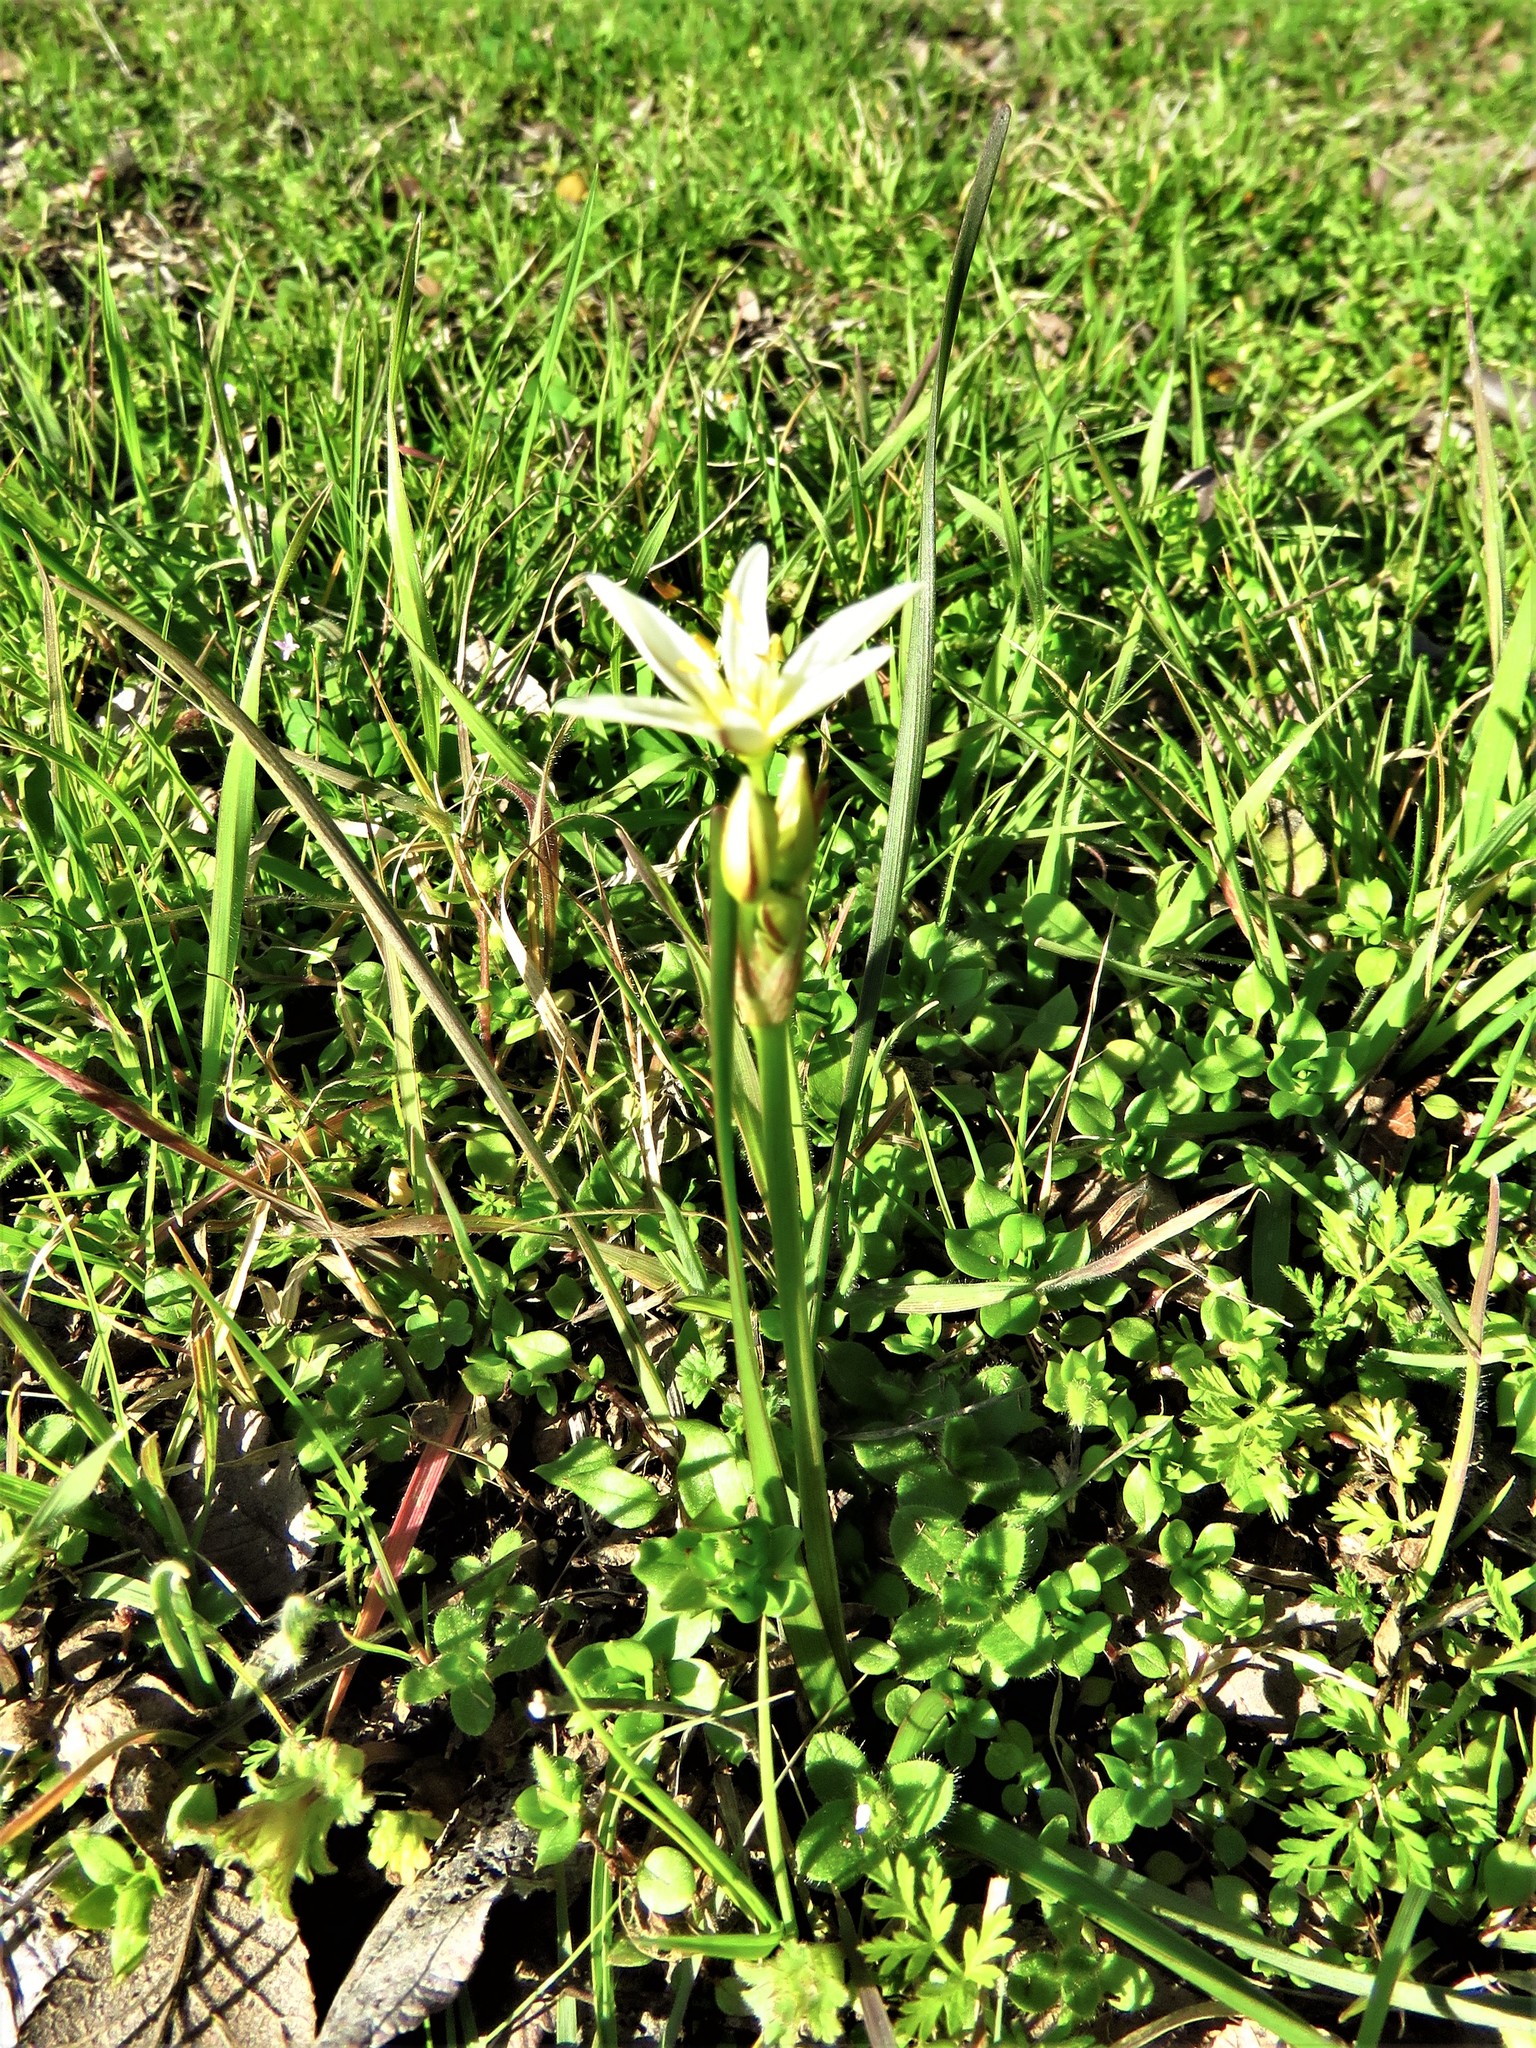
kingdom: Plantae
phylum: Tracheophyta
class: Liliopsida
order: Asparagales
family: Amaryllidaceae
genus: Nothoscordum
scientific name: Nothoscordum bivalve
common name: Crow-poison
